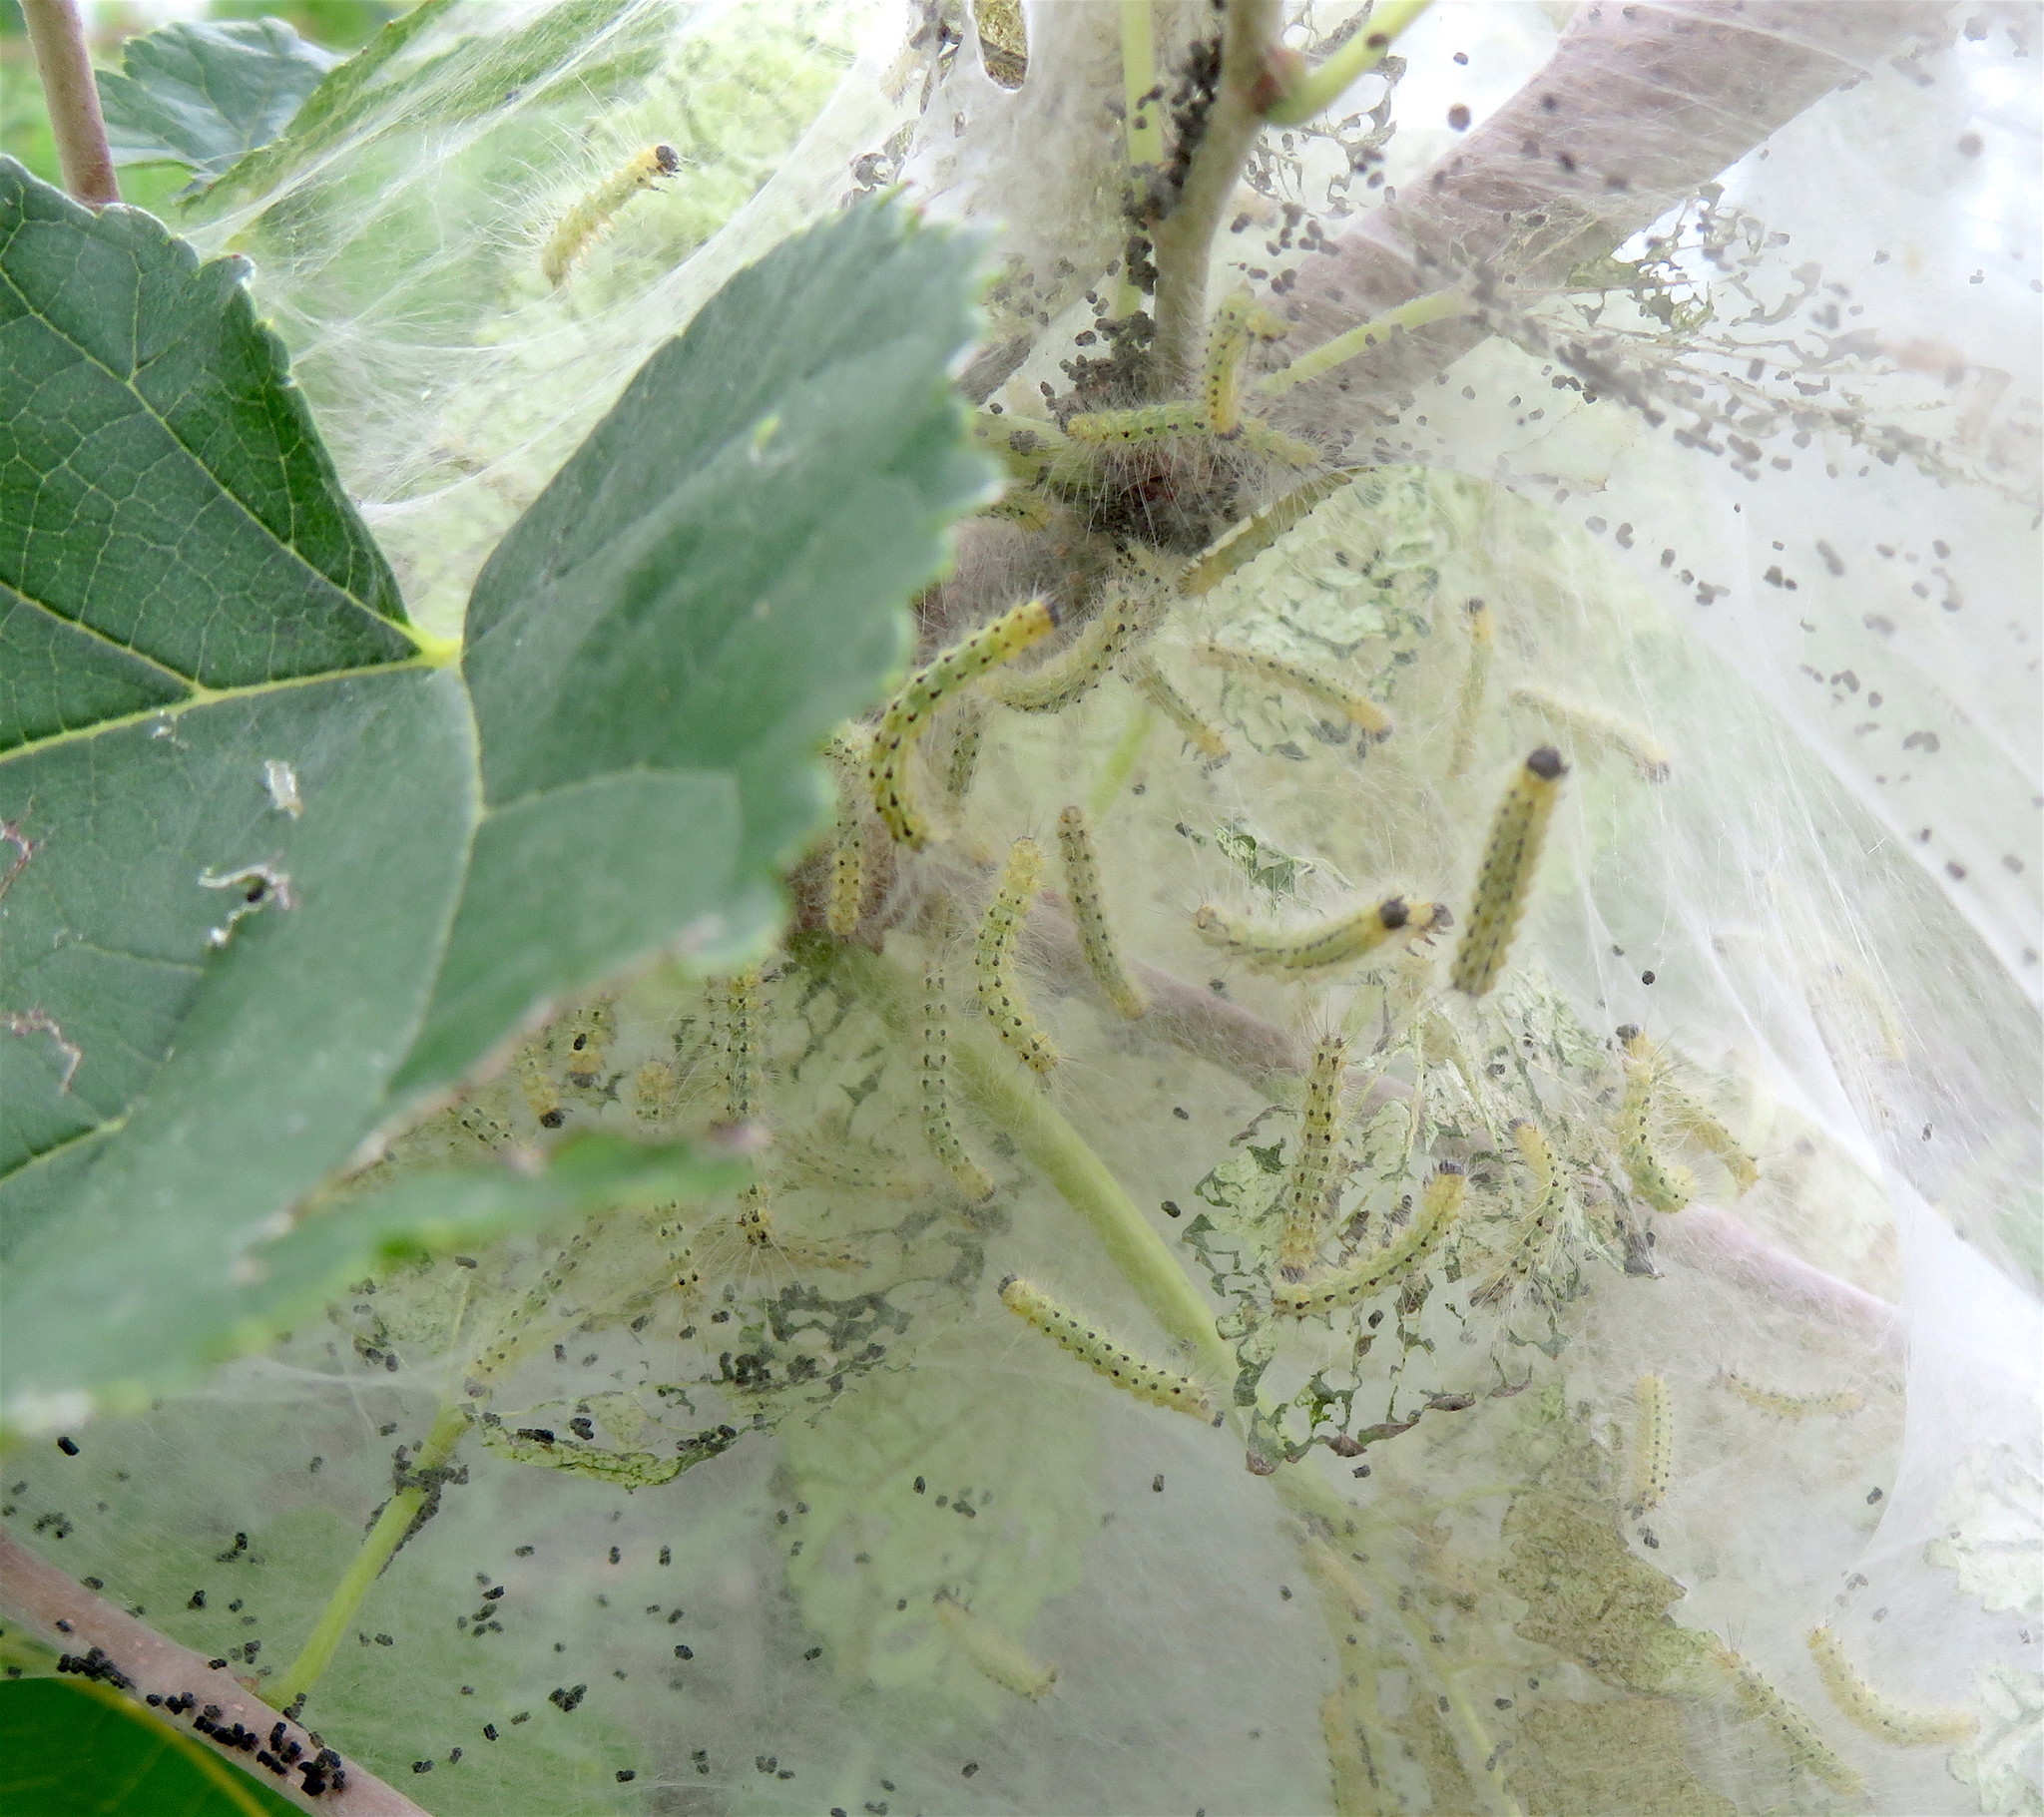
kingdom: Animalia
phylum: Arthropoda
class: Insecta
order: Lepidoptera
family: Erebidae
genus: Hyphantria
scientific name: Hyphantria cunea
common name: American white moth
